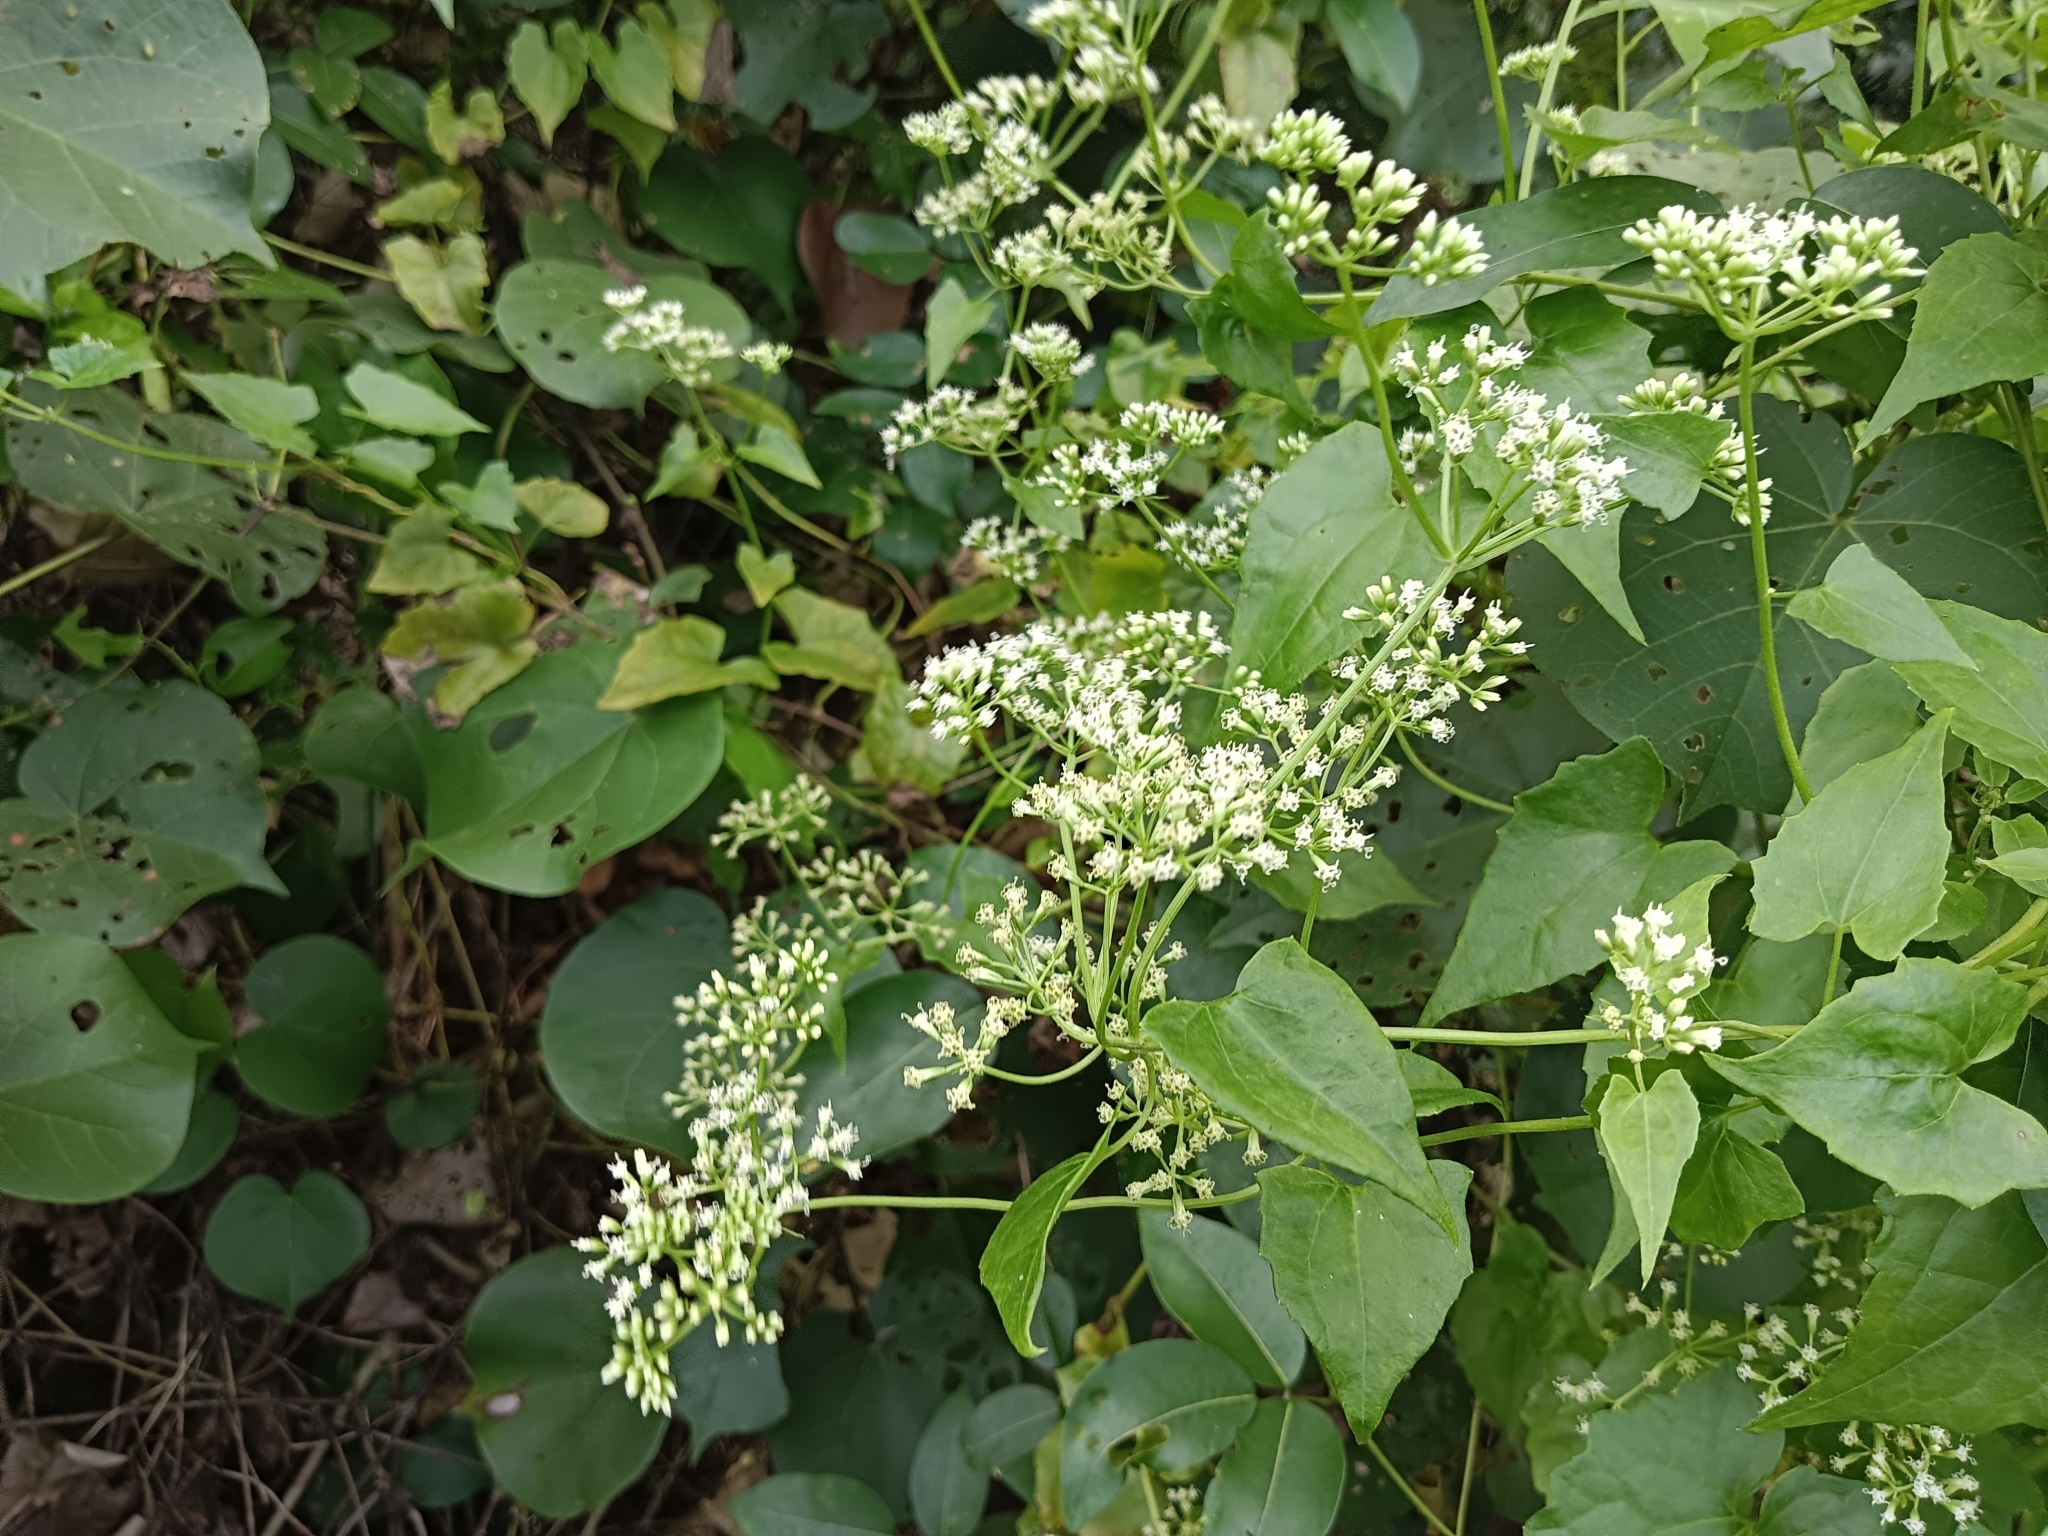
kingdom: Plantae
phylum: Tracheophyta
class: Magnoliopsida
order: Asterales
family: Asteraceae
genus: Mikania
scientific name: Mikania micrantha
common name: Mile-a-minute
